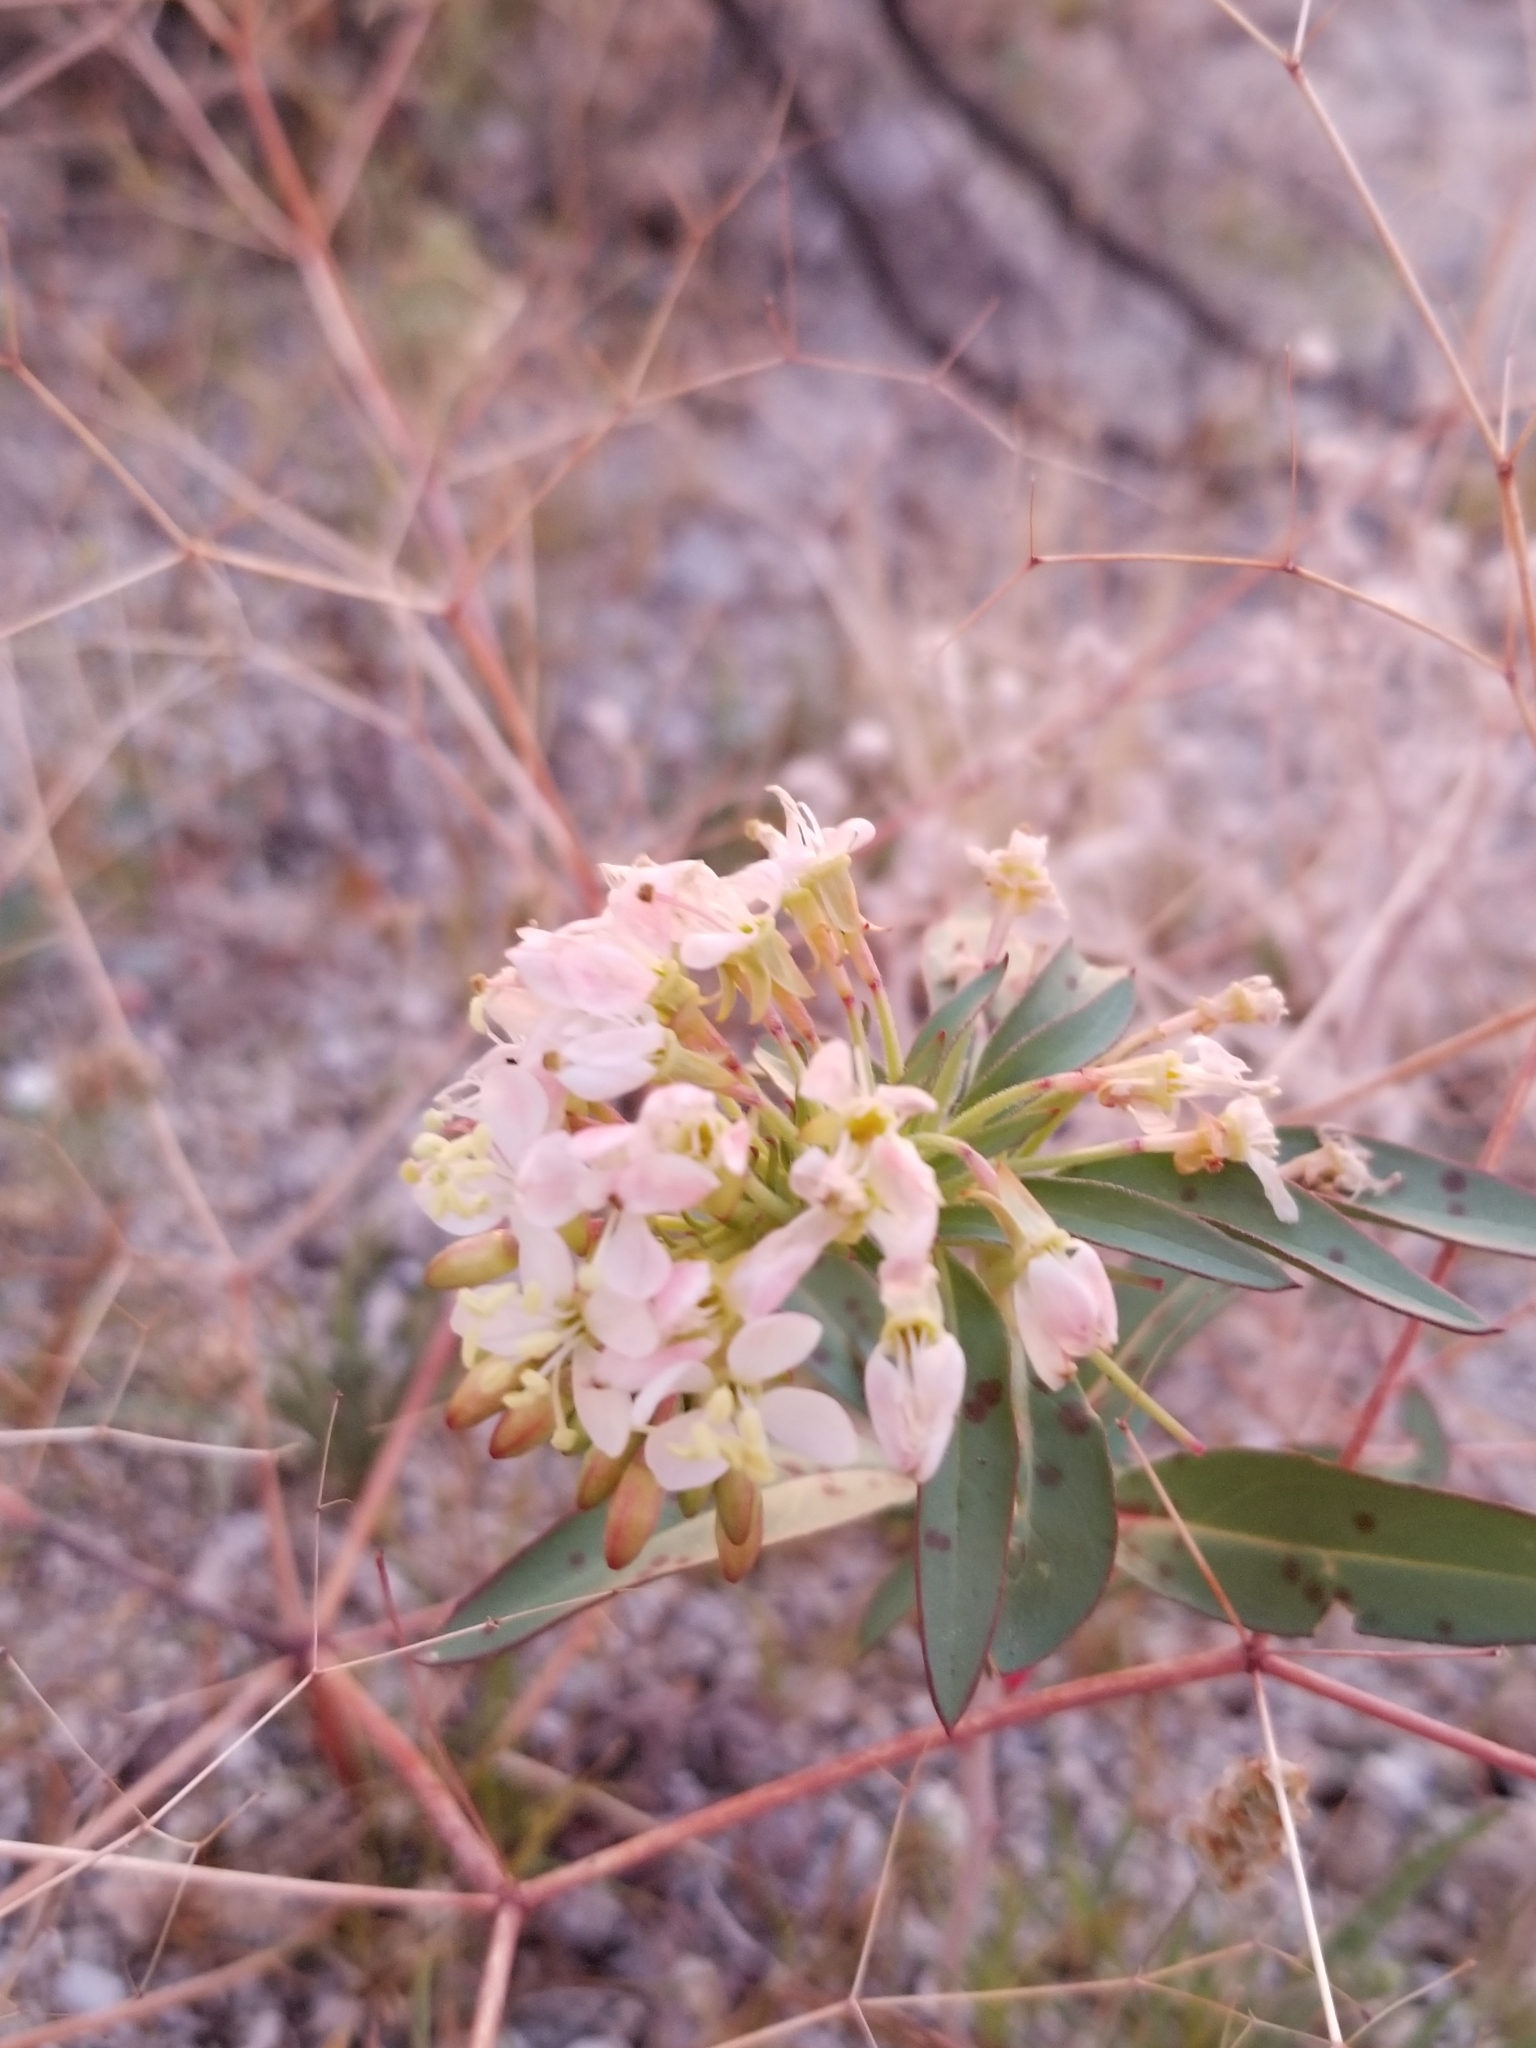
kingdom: Plantae
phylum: Tracheophyta
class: Magnoliopsida
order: Myrtales
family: Onagraceae
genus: Eremothera
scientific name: Eremothera boothii
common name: Booth's evening primrose
